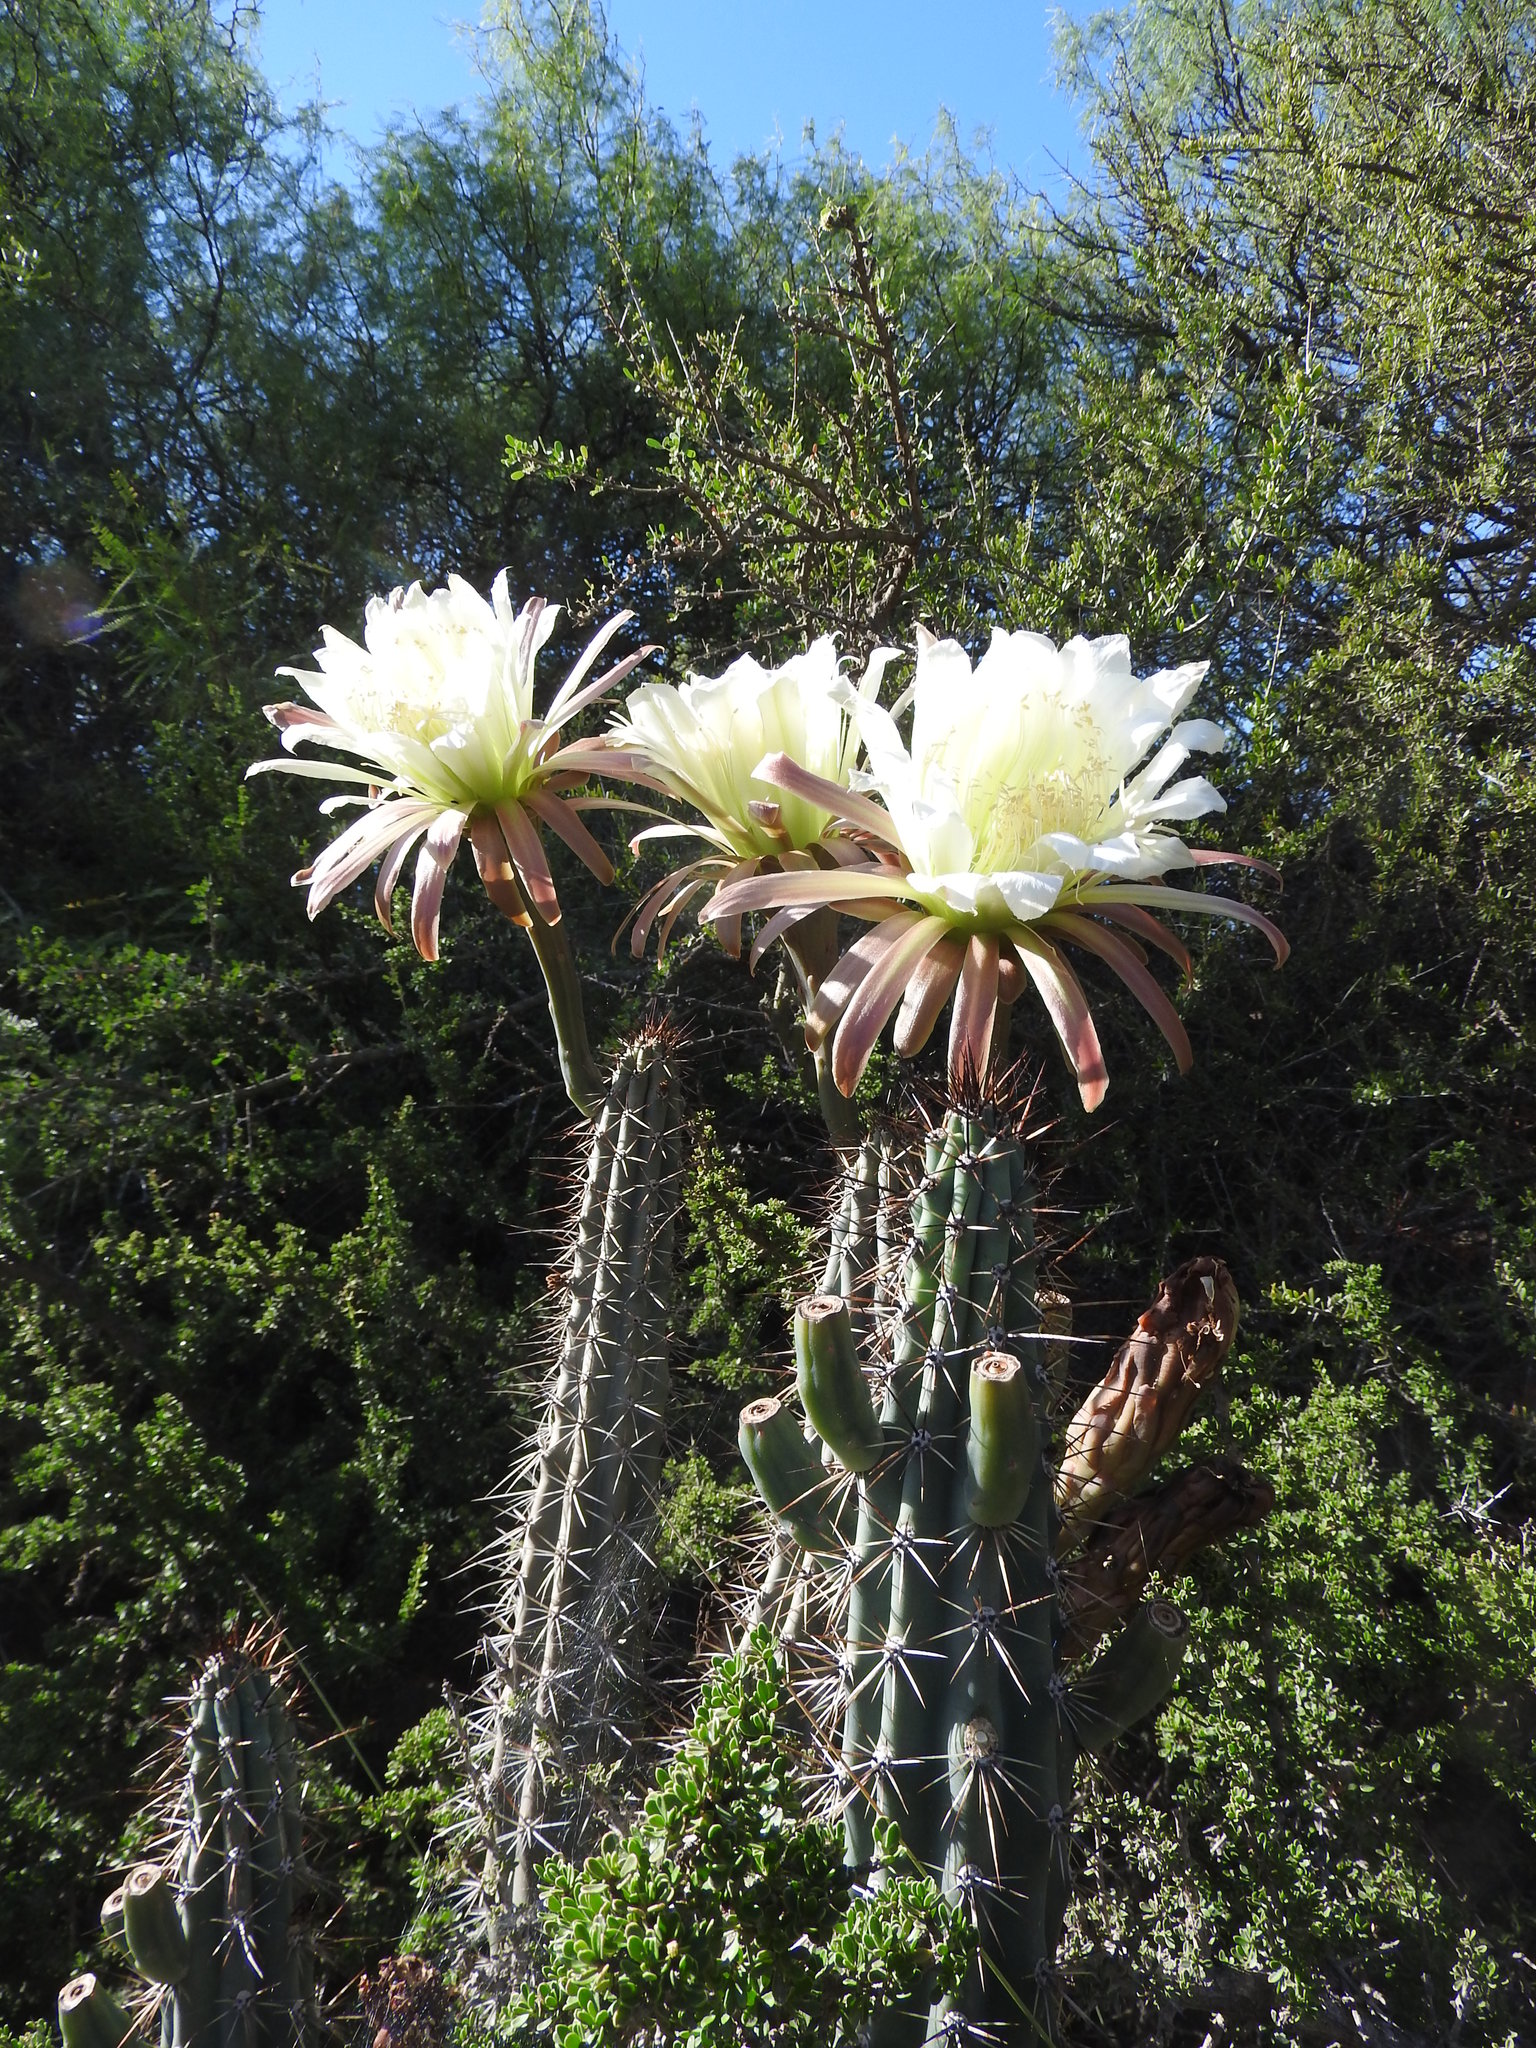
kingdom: Plantae
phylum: Tracheophyta
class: Magnoliopsida
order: Caryophyllales
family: Cactaceae
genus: Cereus
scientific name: Cereus aethiops
